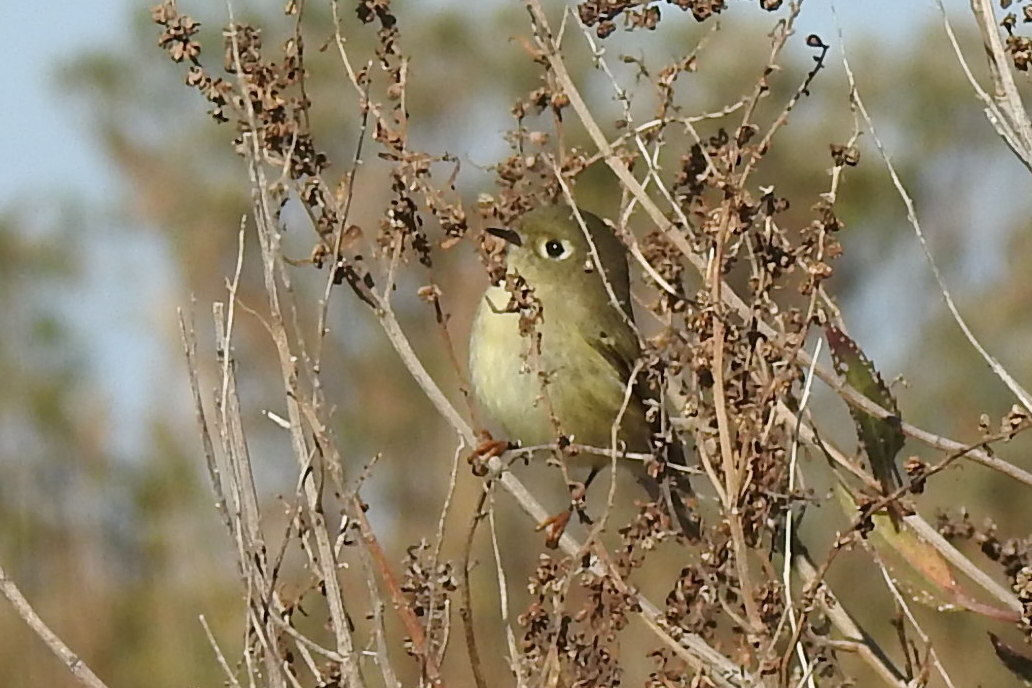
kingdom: Animalia
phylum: Chordata
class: Aves
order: Passeriformes
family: Regulidae
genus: Regulus
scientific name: Regulus calendula
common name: Ruby-crowned kinglet
